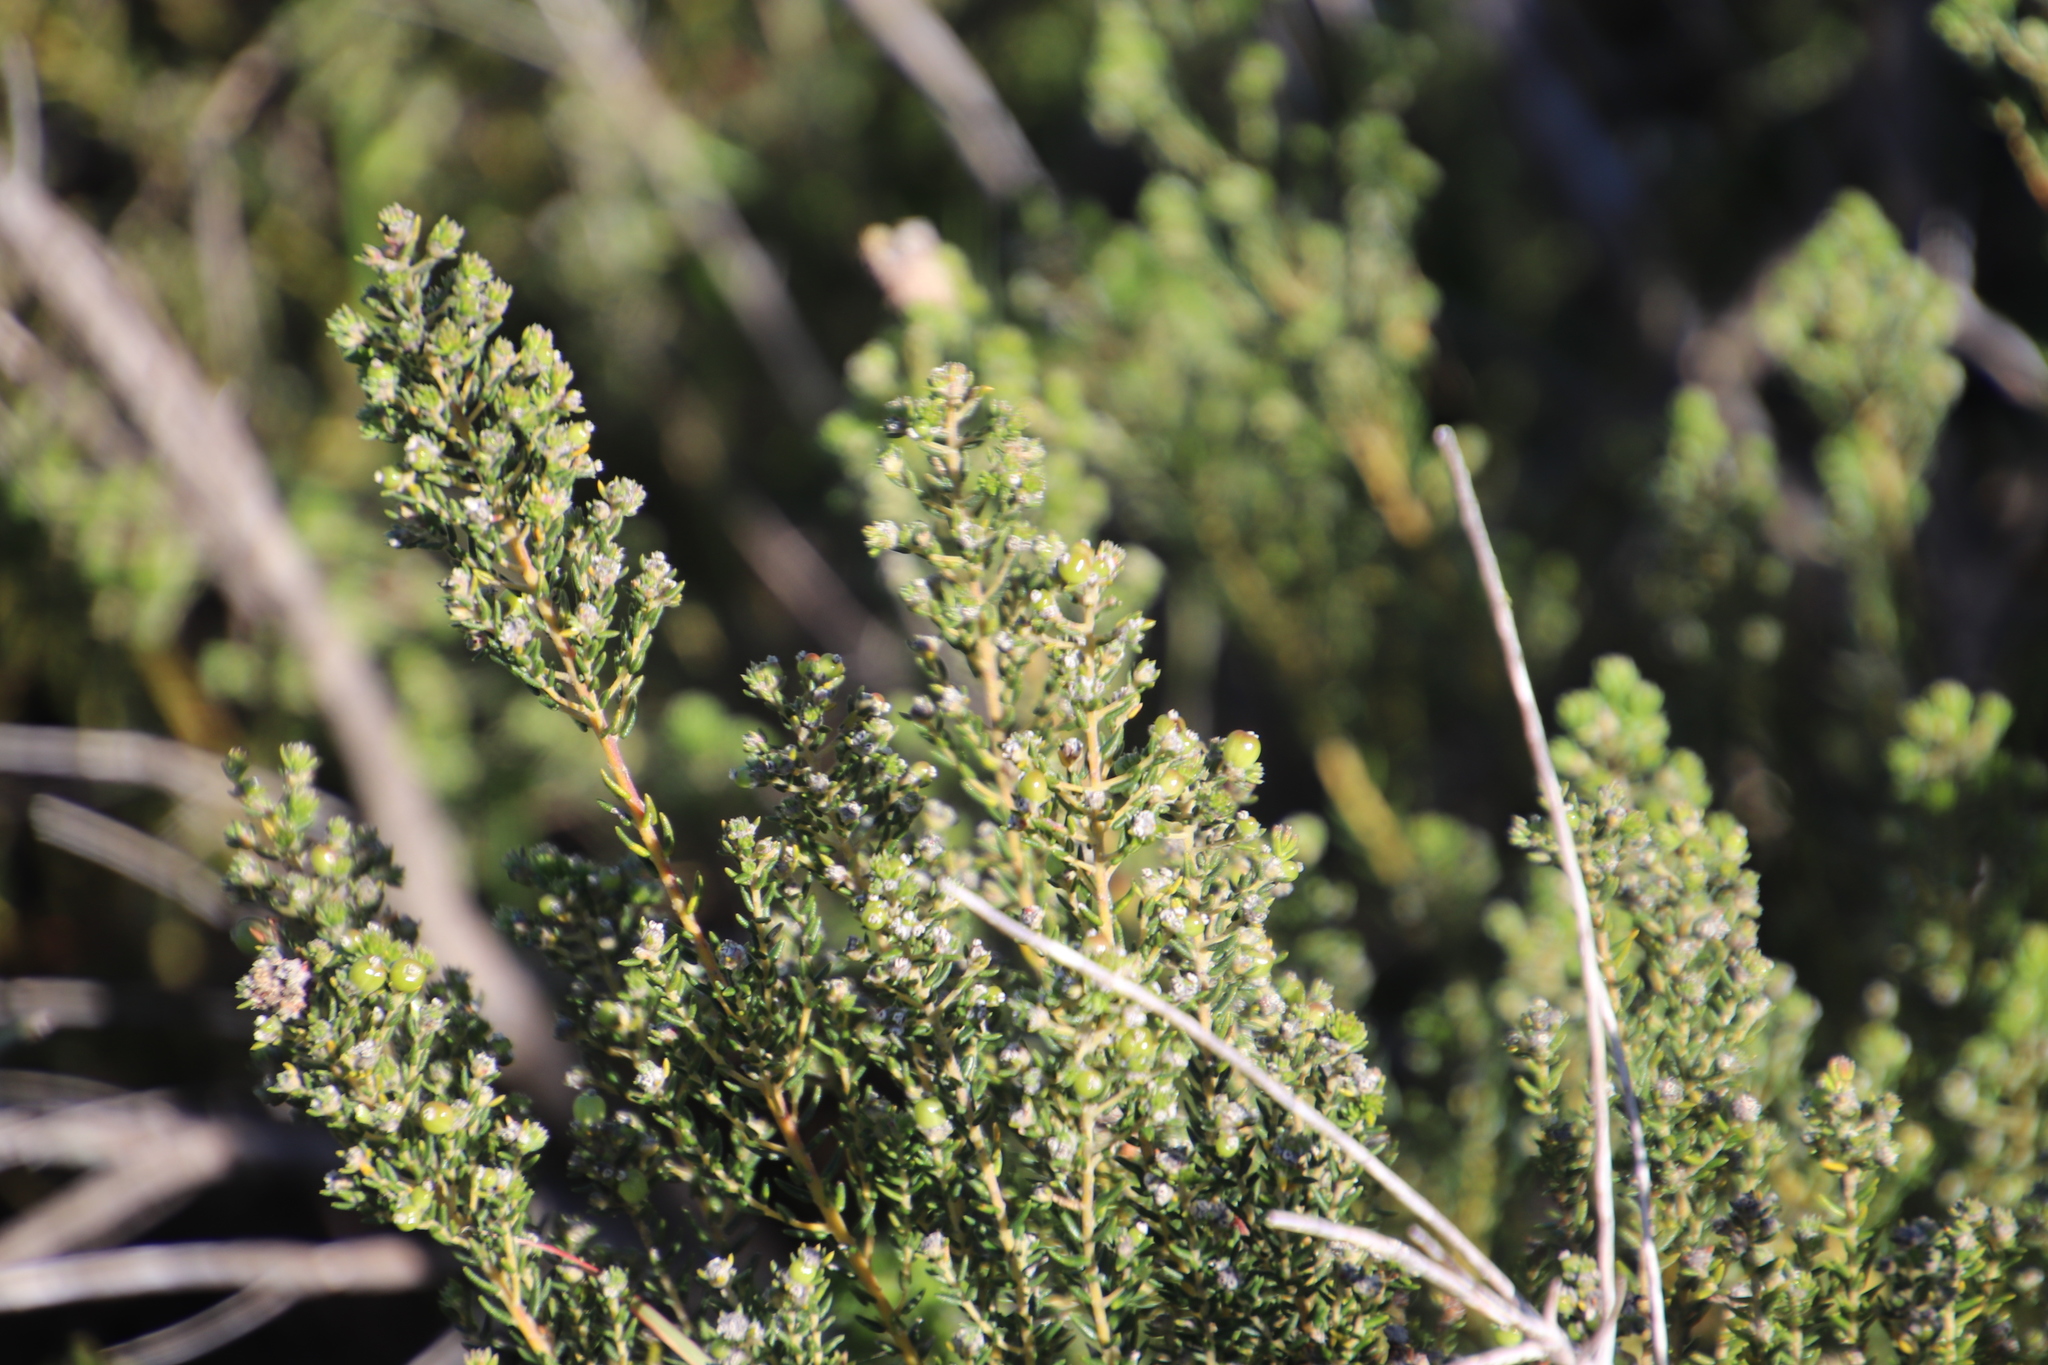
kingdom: Plantae
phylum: Tracheophyta
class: Magnoliopsida
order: Rosales
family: Rhamnaceae
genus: Phylica
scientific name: Phylica parviflora
